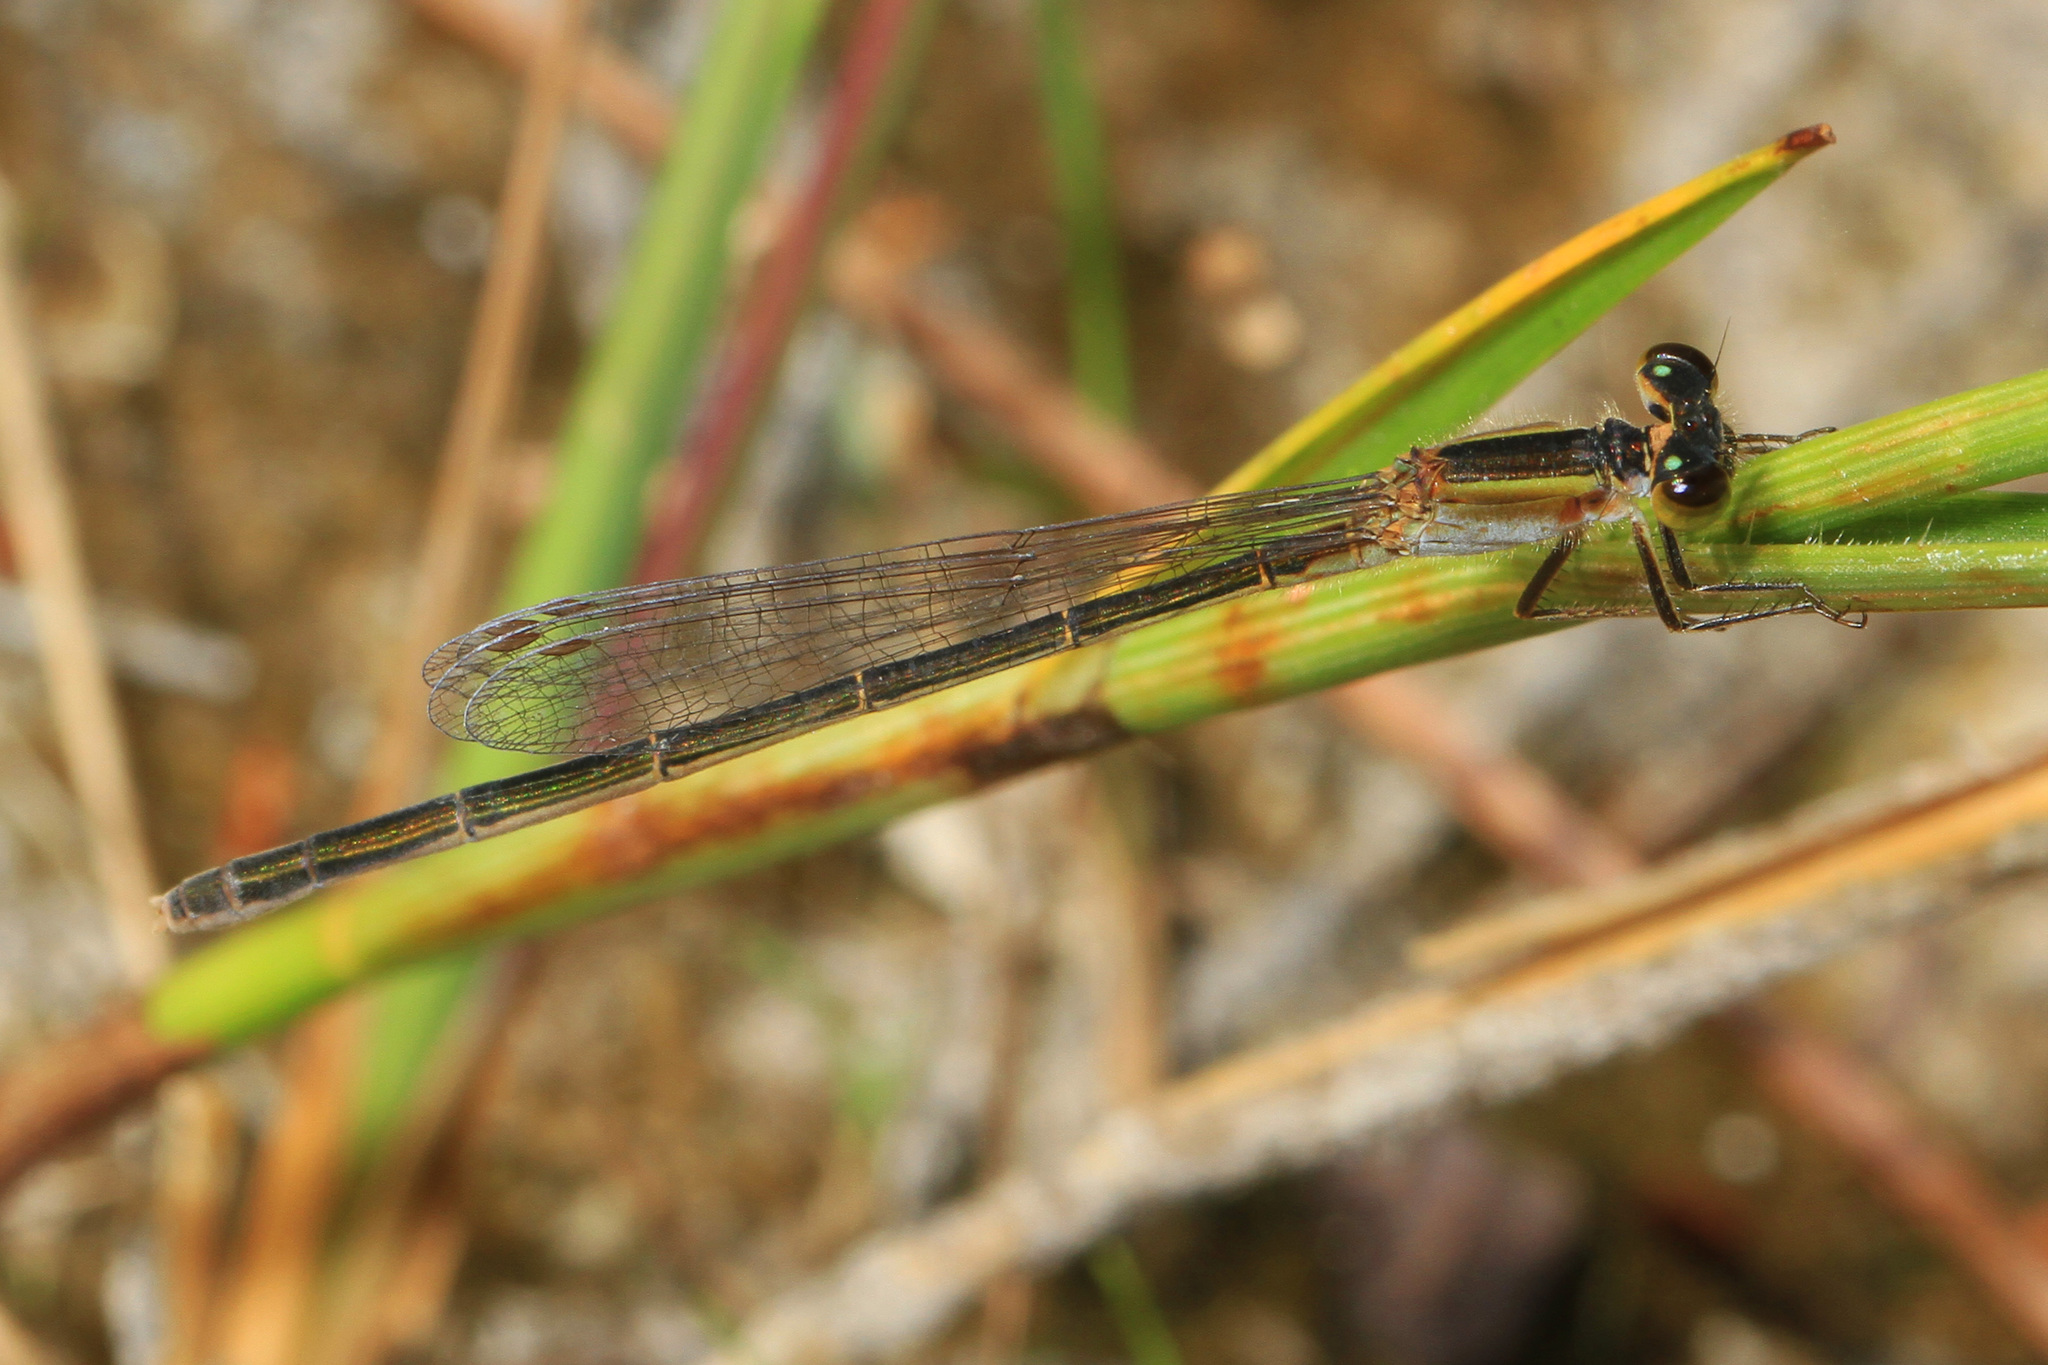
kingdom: Animalia
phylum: Arthropoda
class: Insecta
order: Odonata
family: Coenagrionidae
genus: Ischnura
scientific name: Ischnura hastata
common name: Citrine forktail
